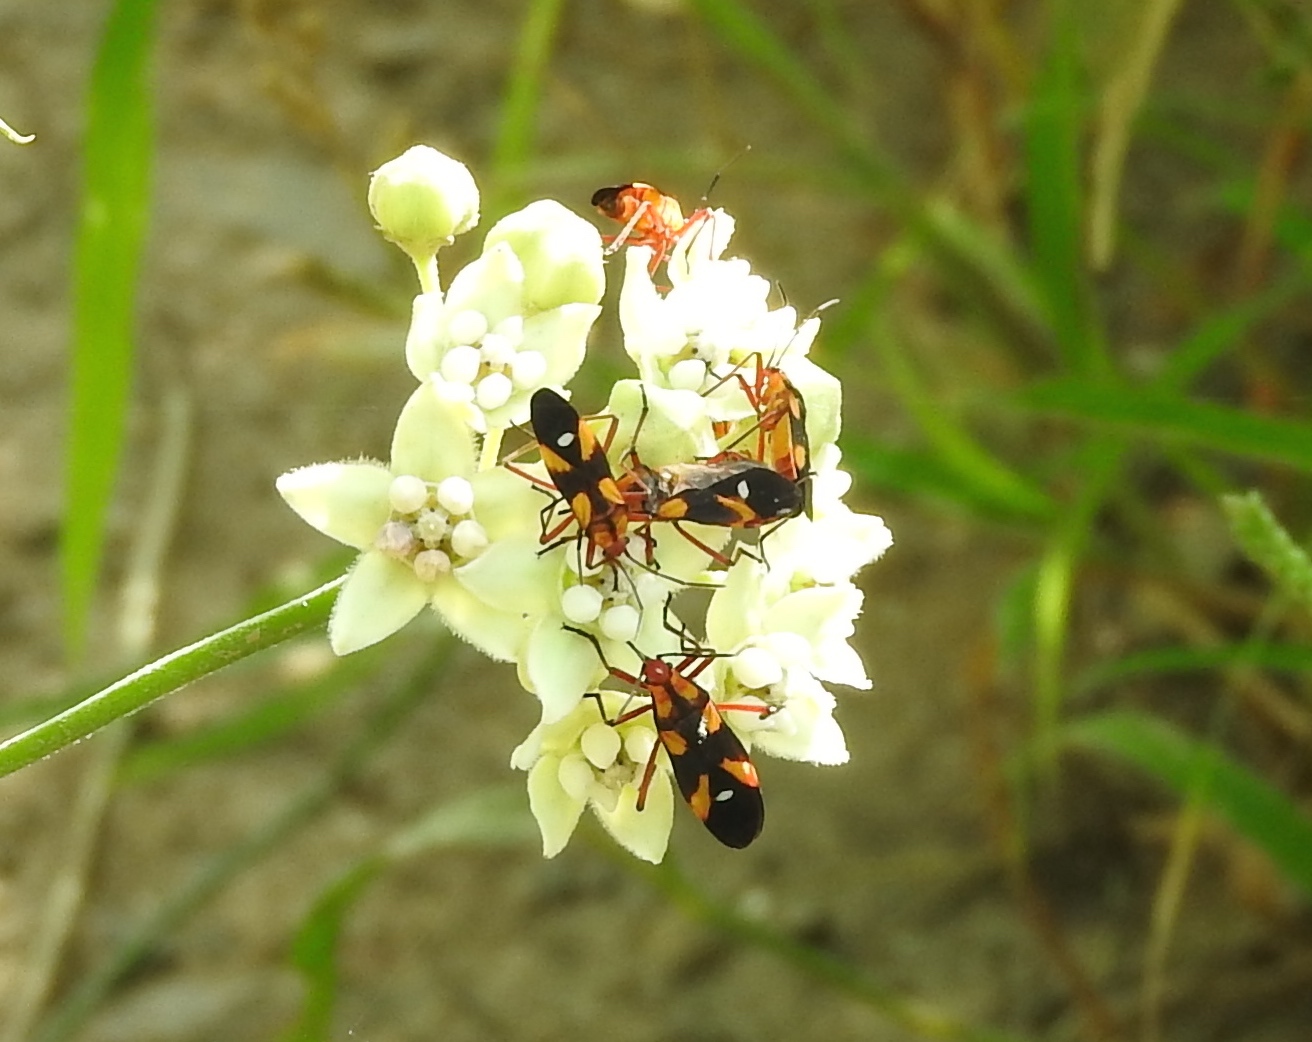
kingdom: Animalia
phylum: Arthropoda
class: Insecta
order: Hemiptera
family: Lygaeidae
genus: Oncopeltus
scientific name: Oncopeltus guttaloides
